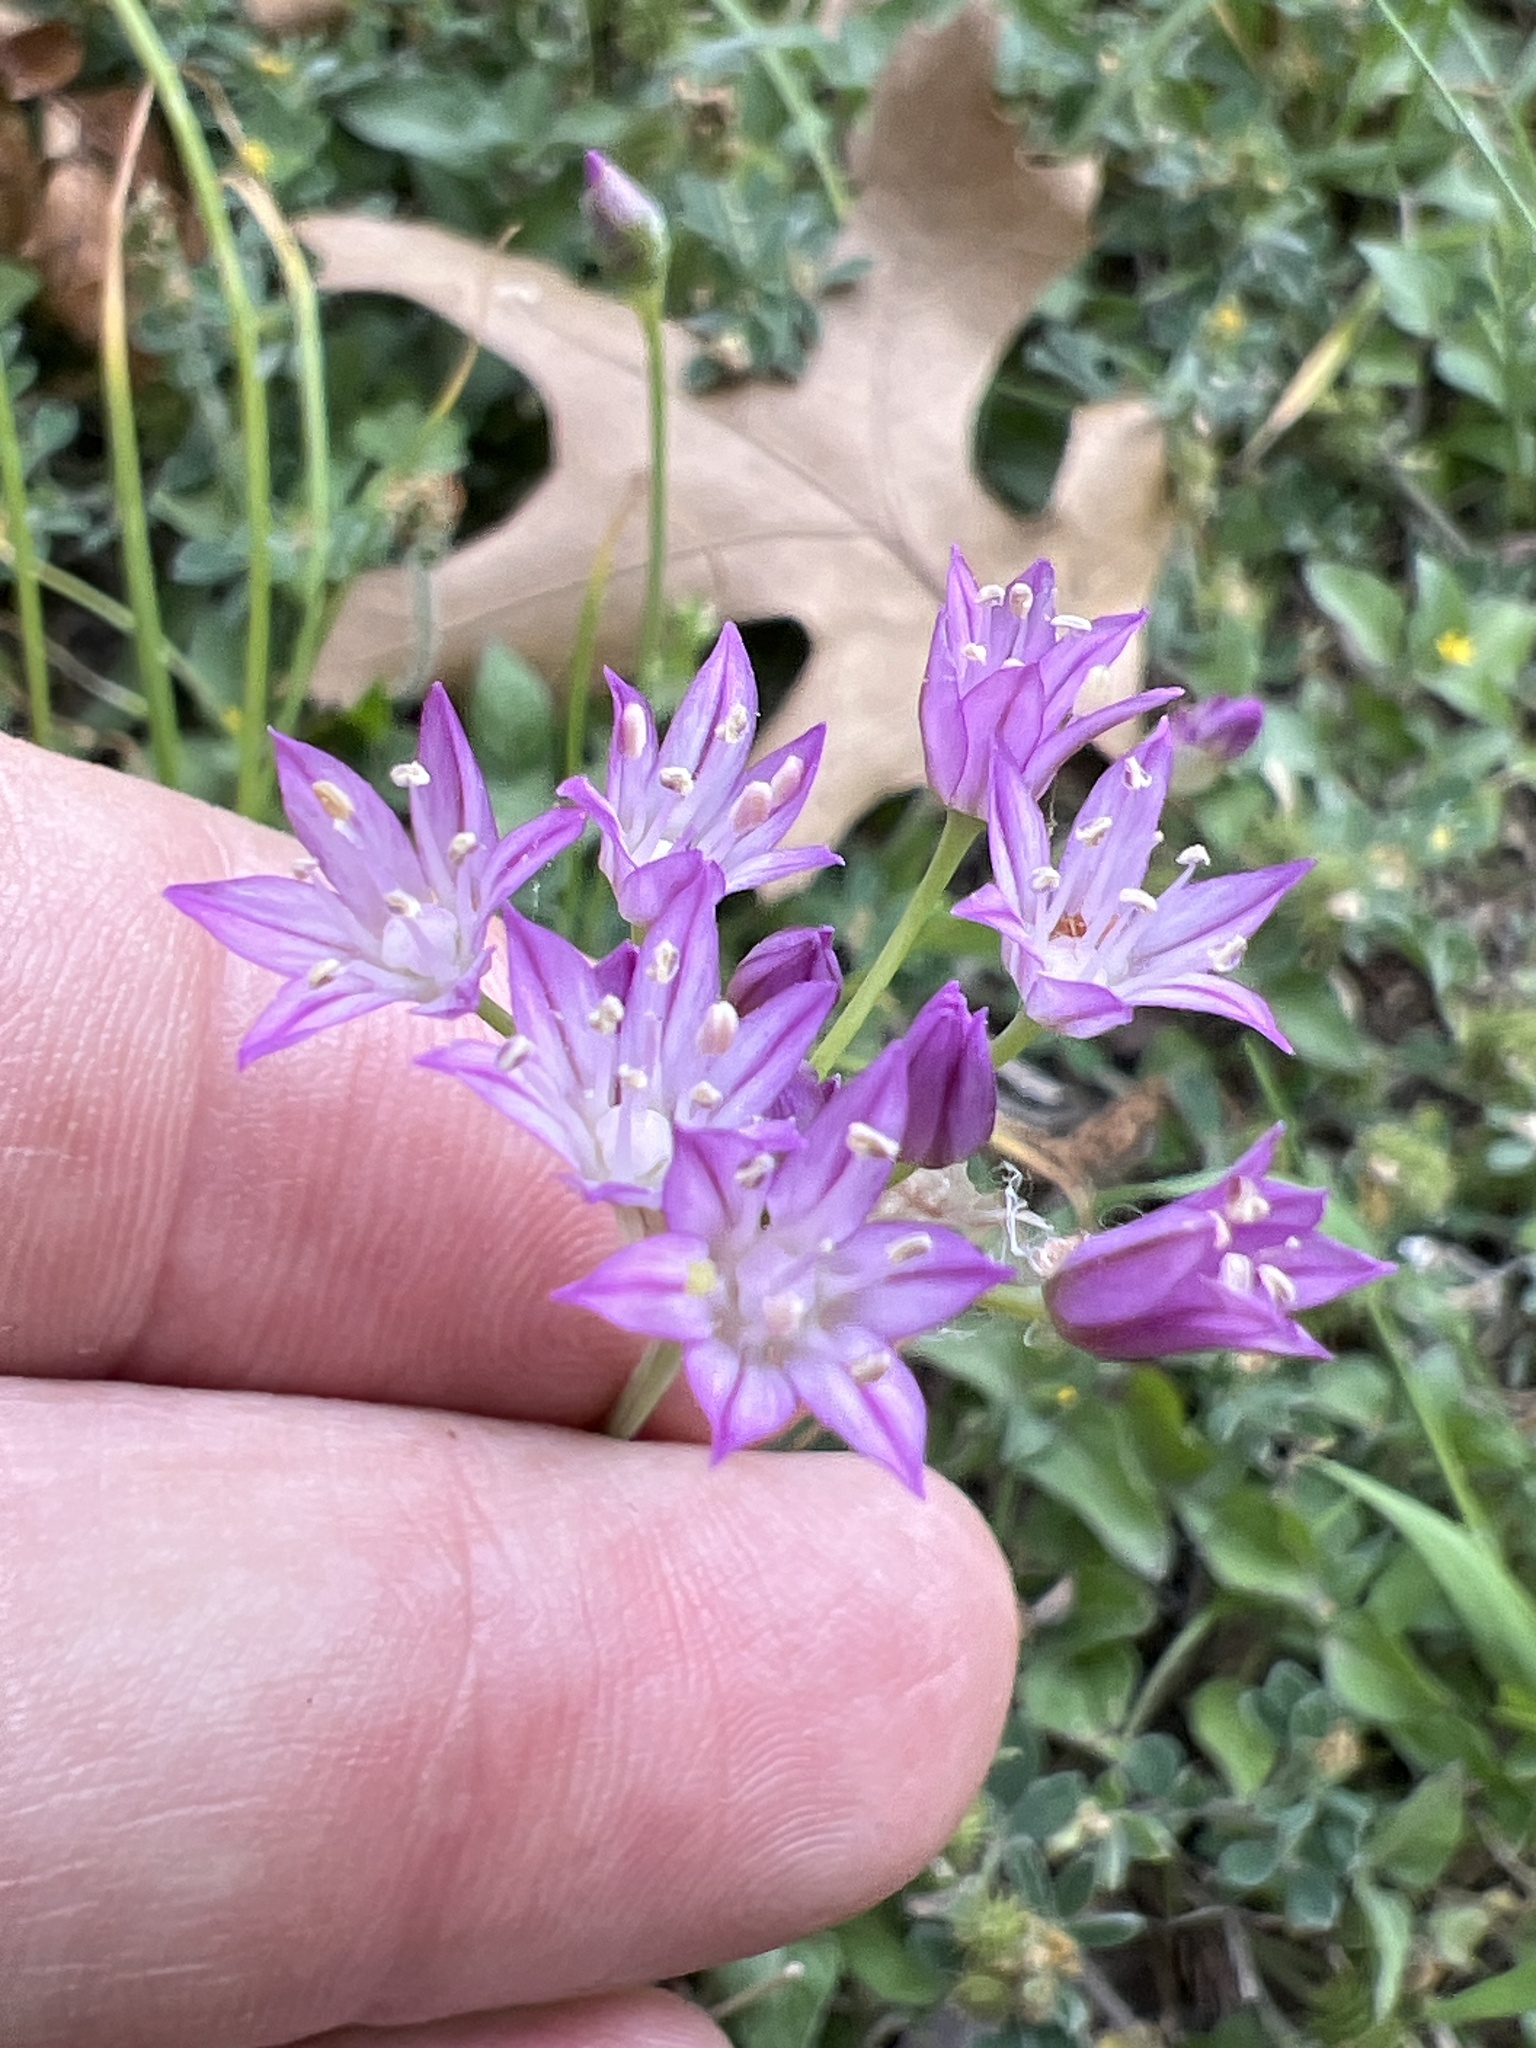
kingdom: Plantae
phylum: Tracheophyta
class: Liliopsida
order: Asparagales
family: Amaryllidaceae
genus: Allium
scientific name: Allium drummondii
